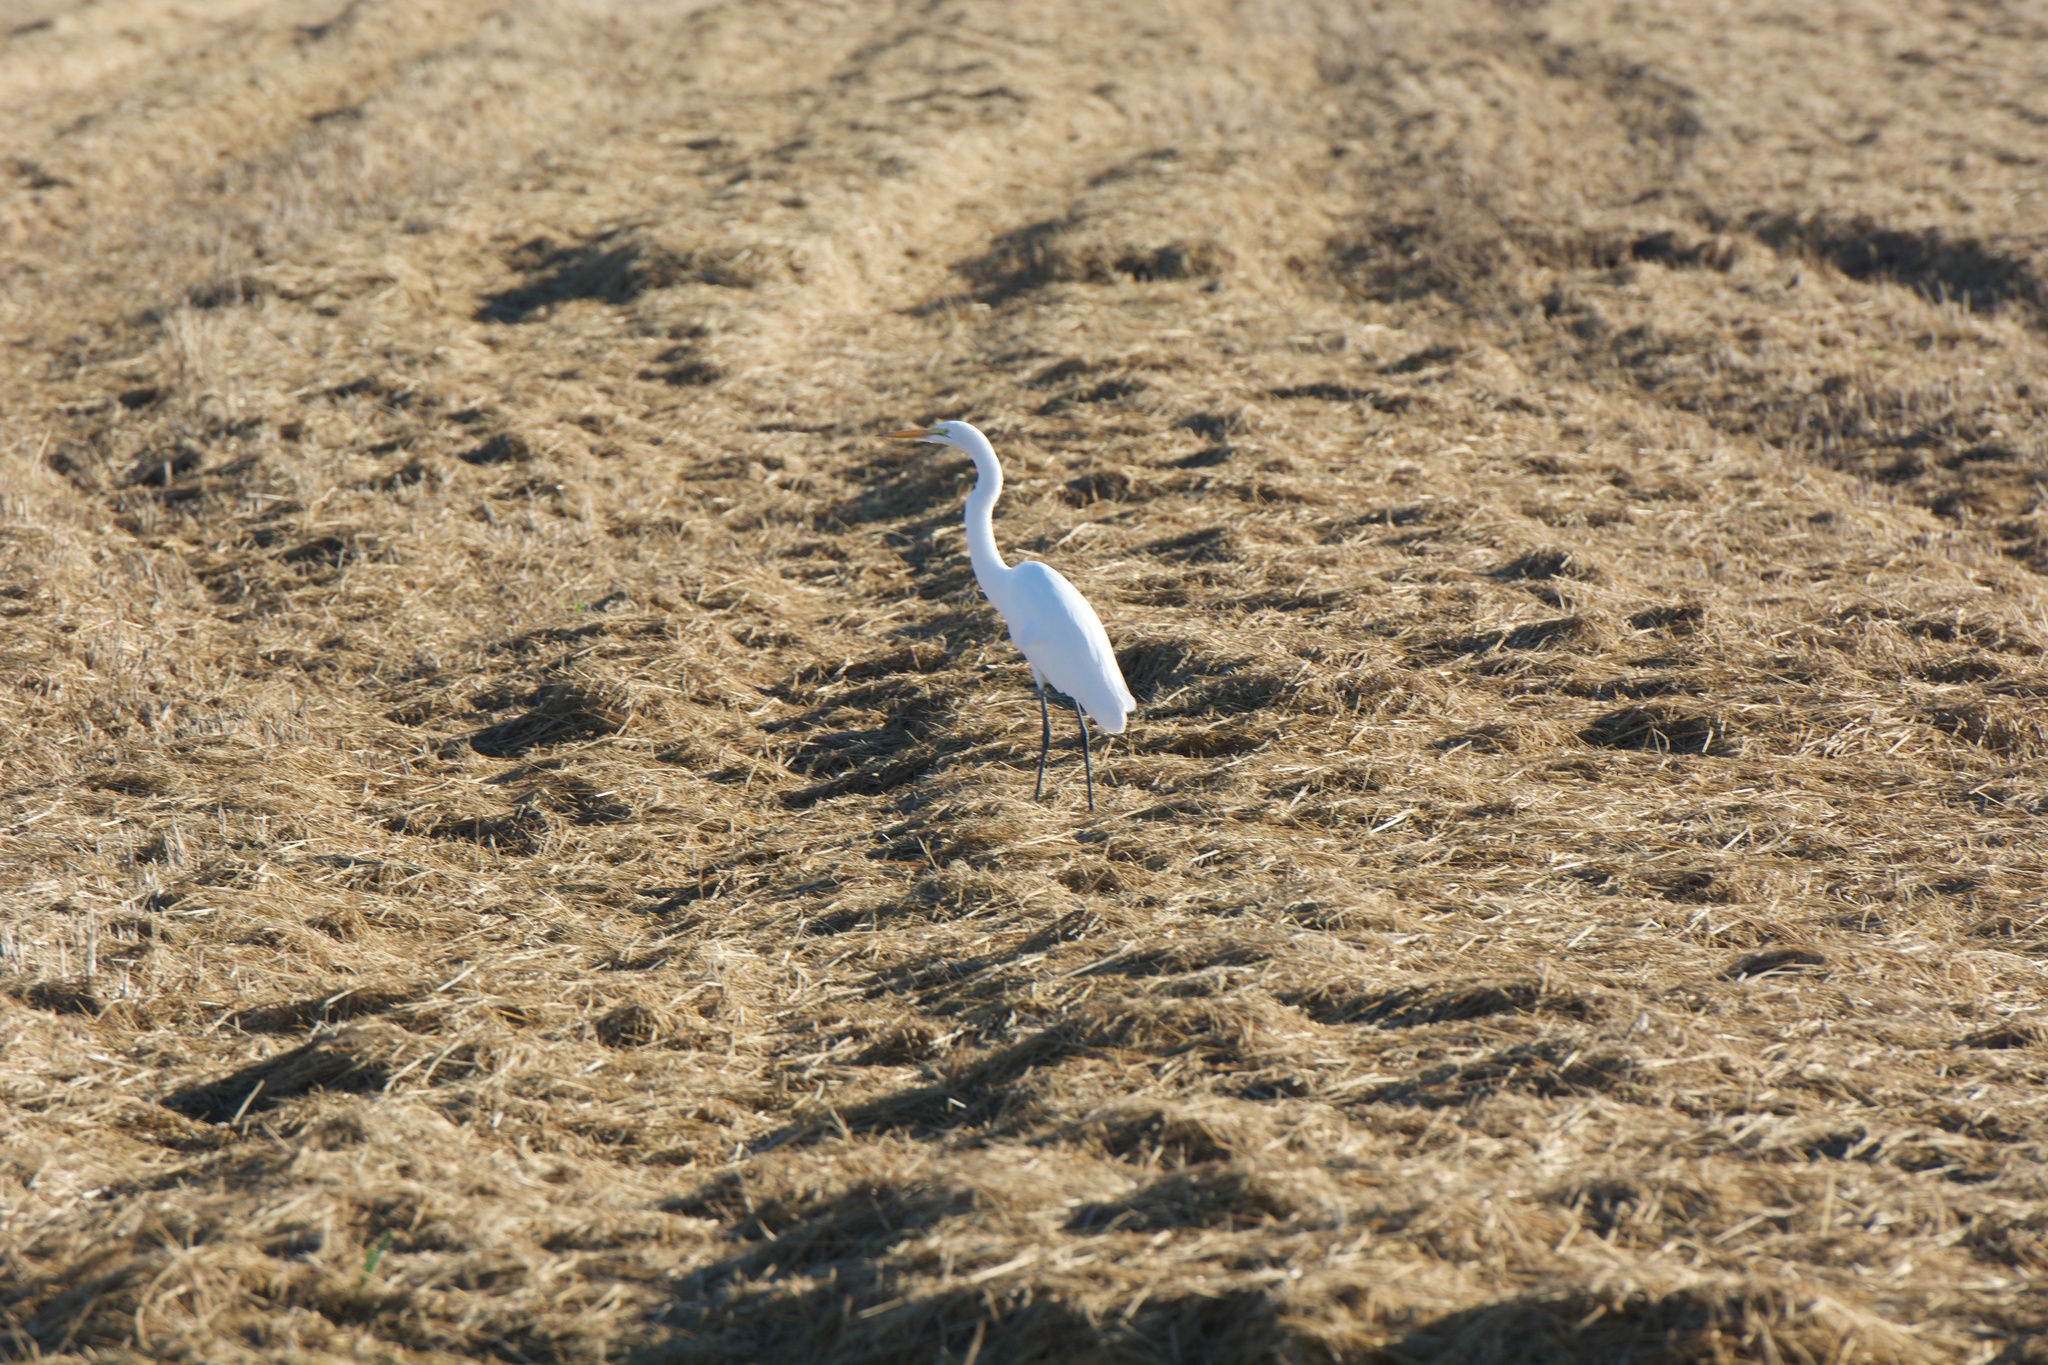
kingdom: Animalia
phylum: Chordata
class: Aves
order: Pelecaniformes
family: Ardeidae
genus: Ardea
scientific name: Ardea alba
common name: Great egret
